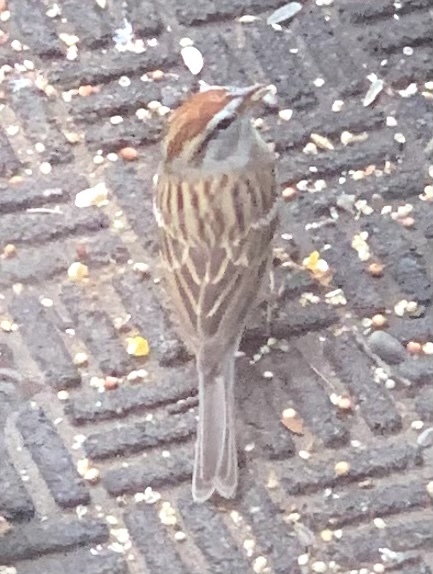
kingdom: Animalia
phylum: Chordata
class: Aves
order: Passeriformes
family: Passerellidae
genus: Spizella
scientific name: Spizella passerina
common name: Chipping sparrow
